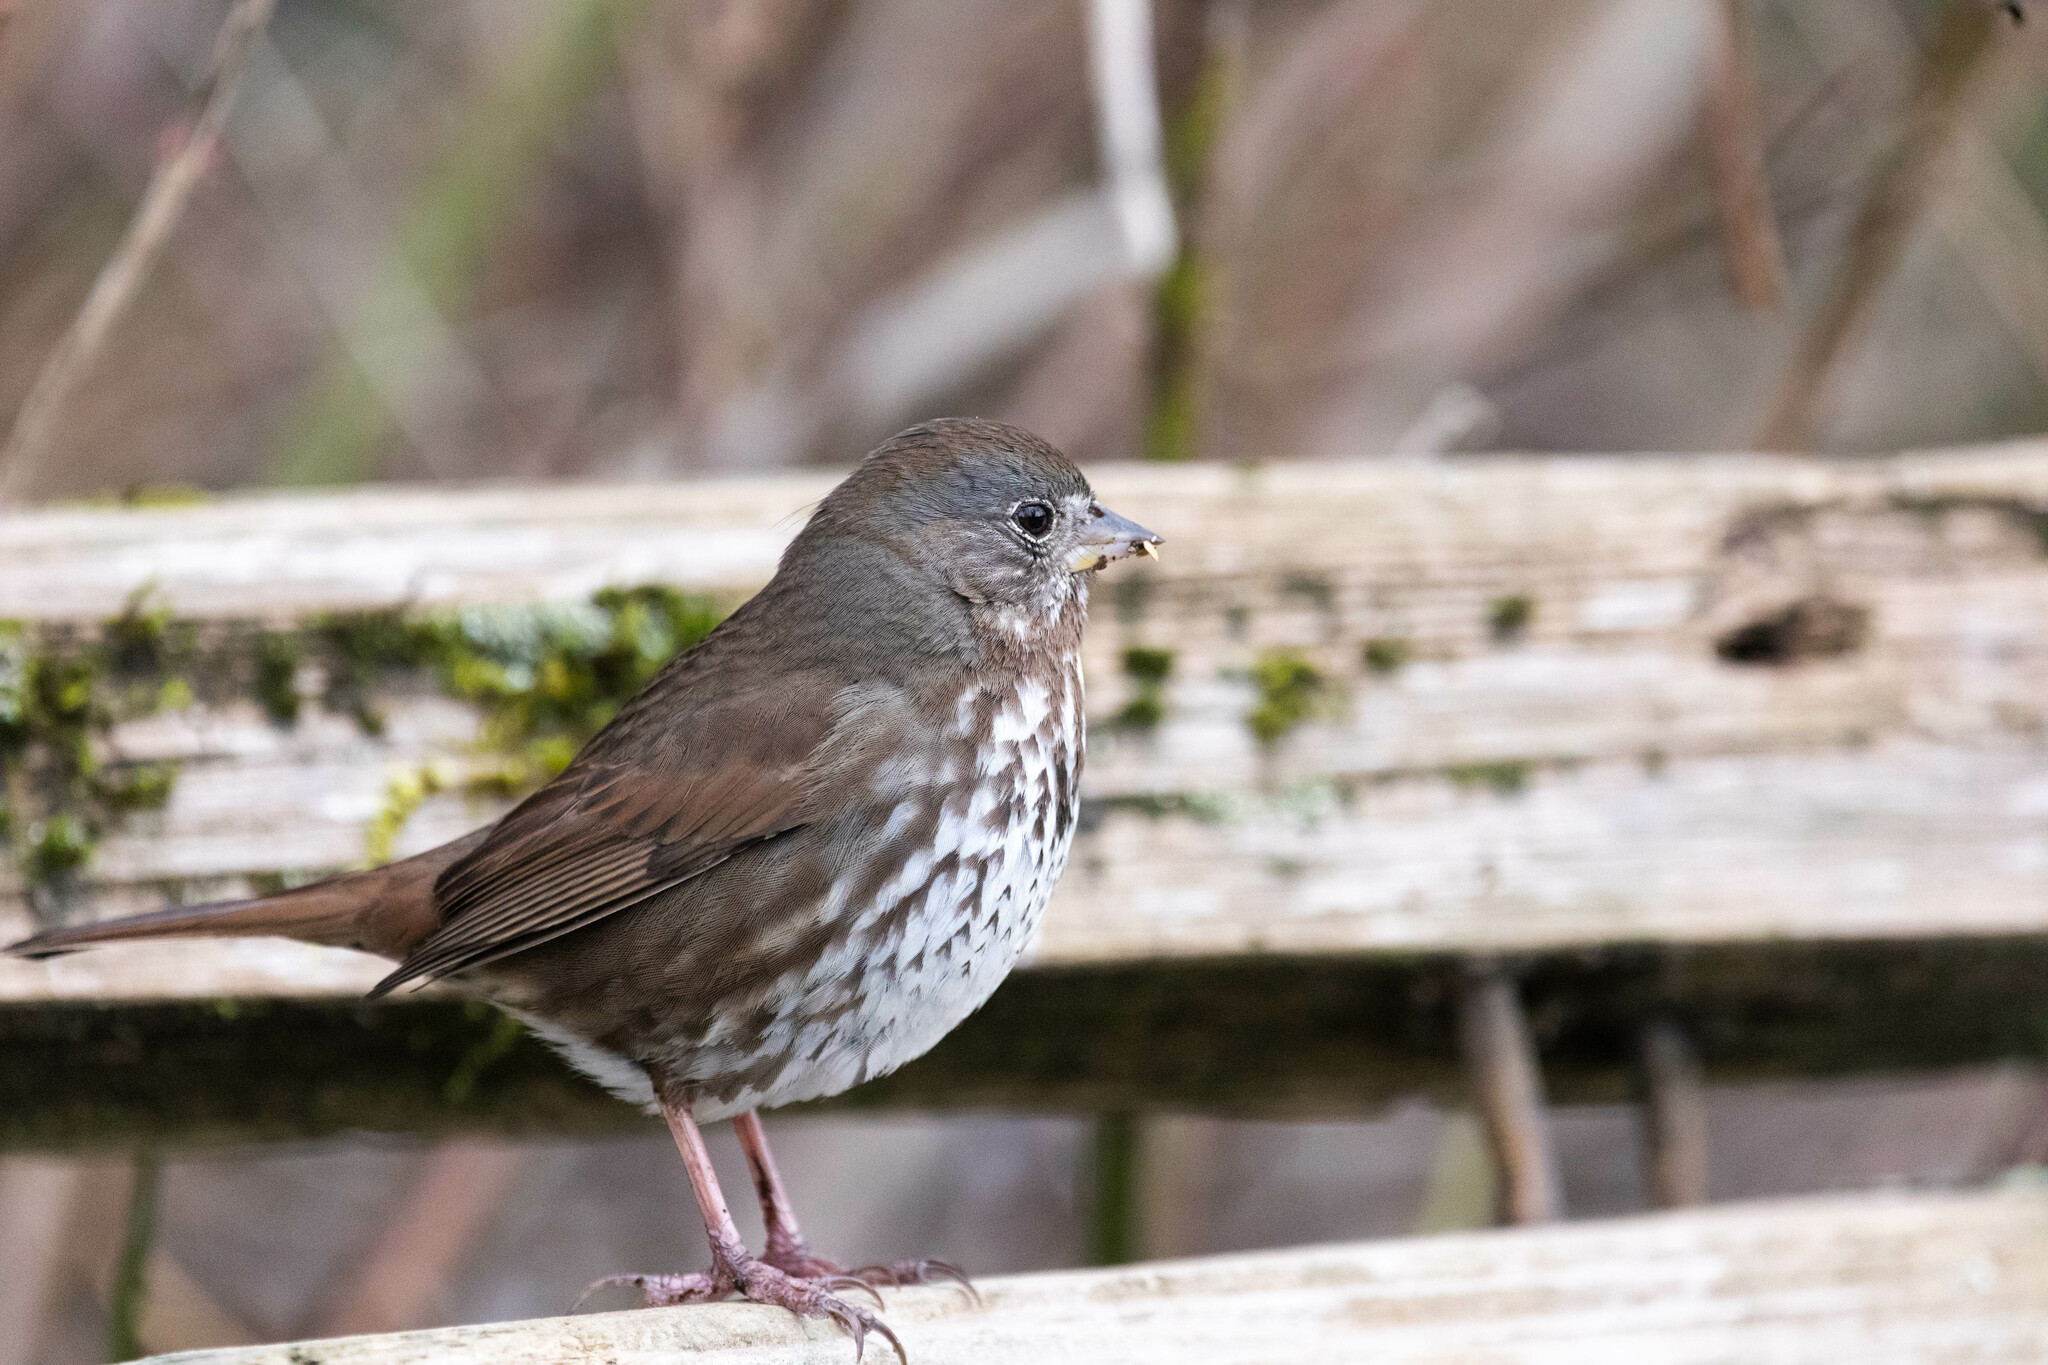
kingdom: Animalia
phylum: Chordata
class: Aves
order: Passeriformes
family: Passerellidae
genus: Passerella
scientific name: Passerella iliaca
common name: Fox sparrow
